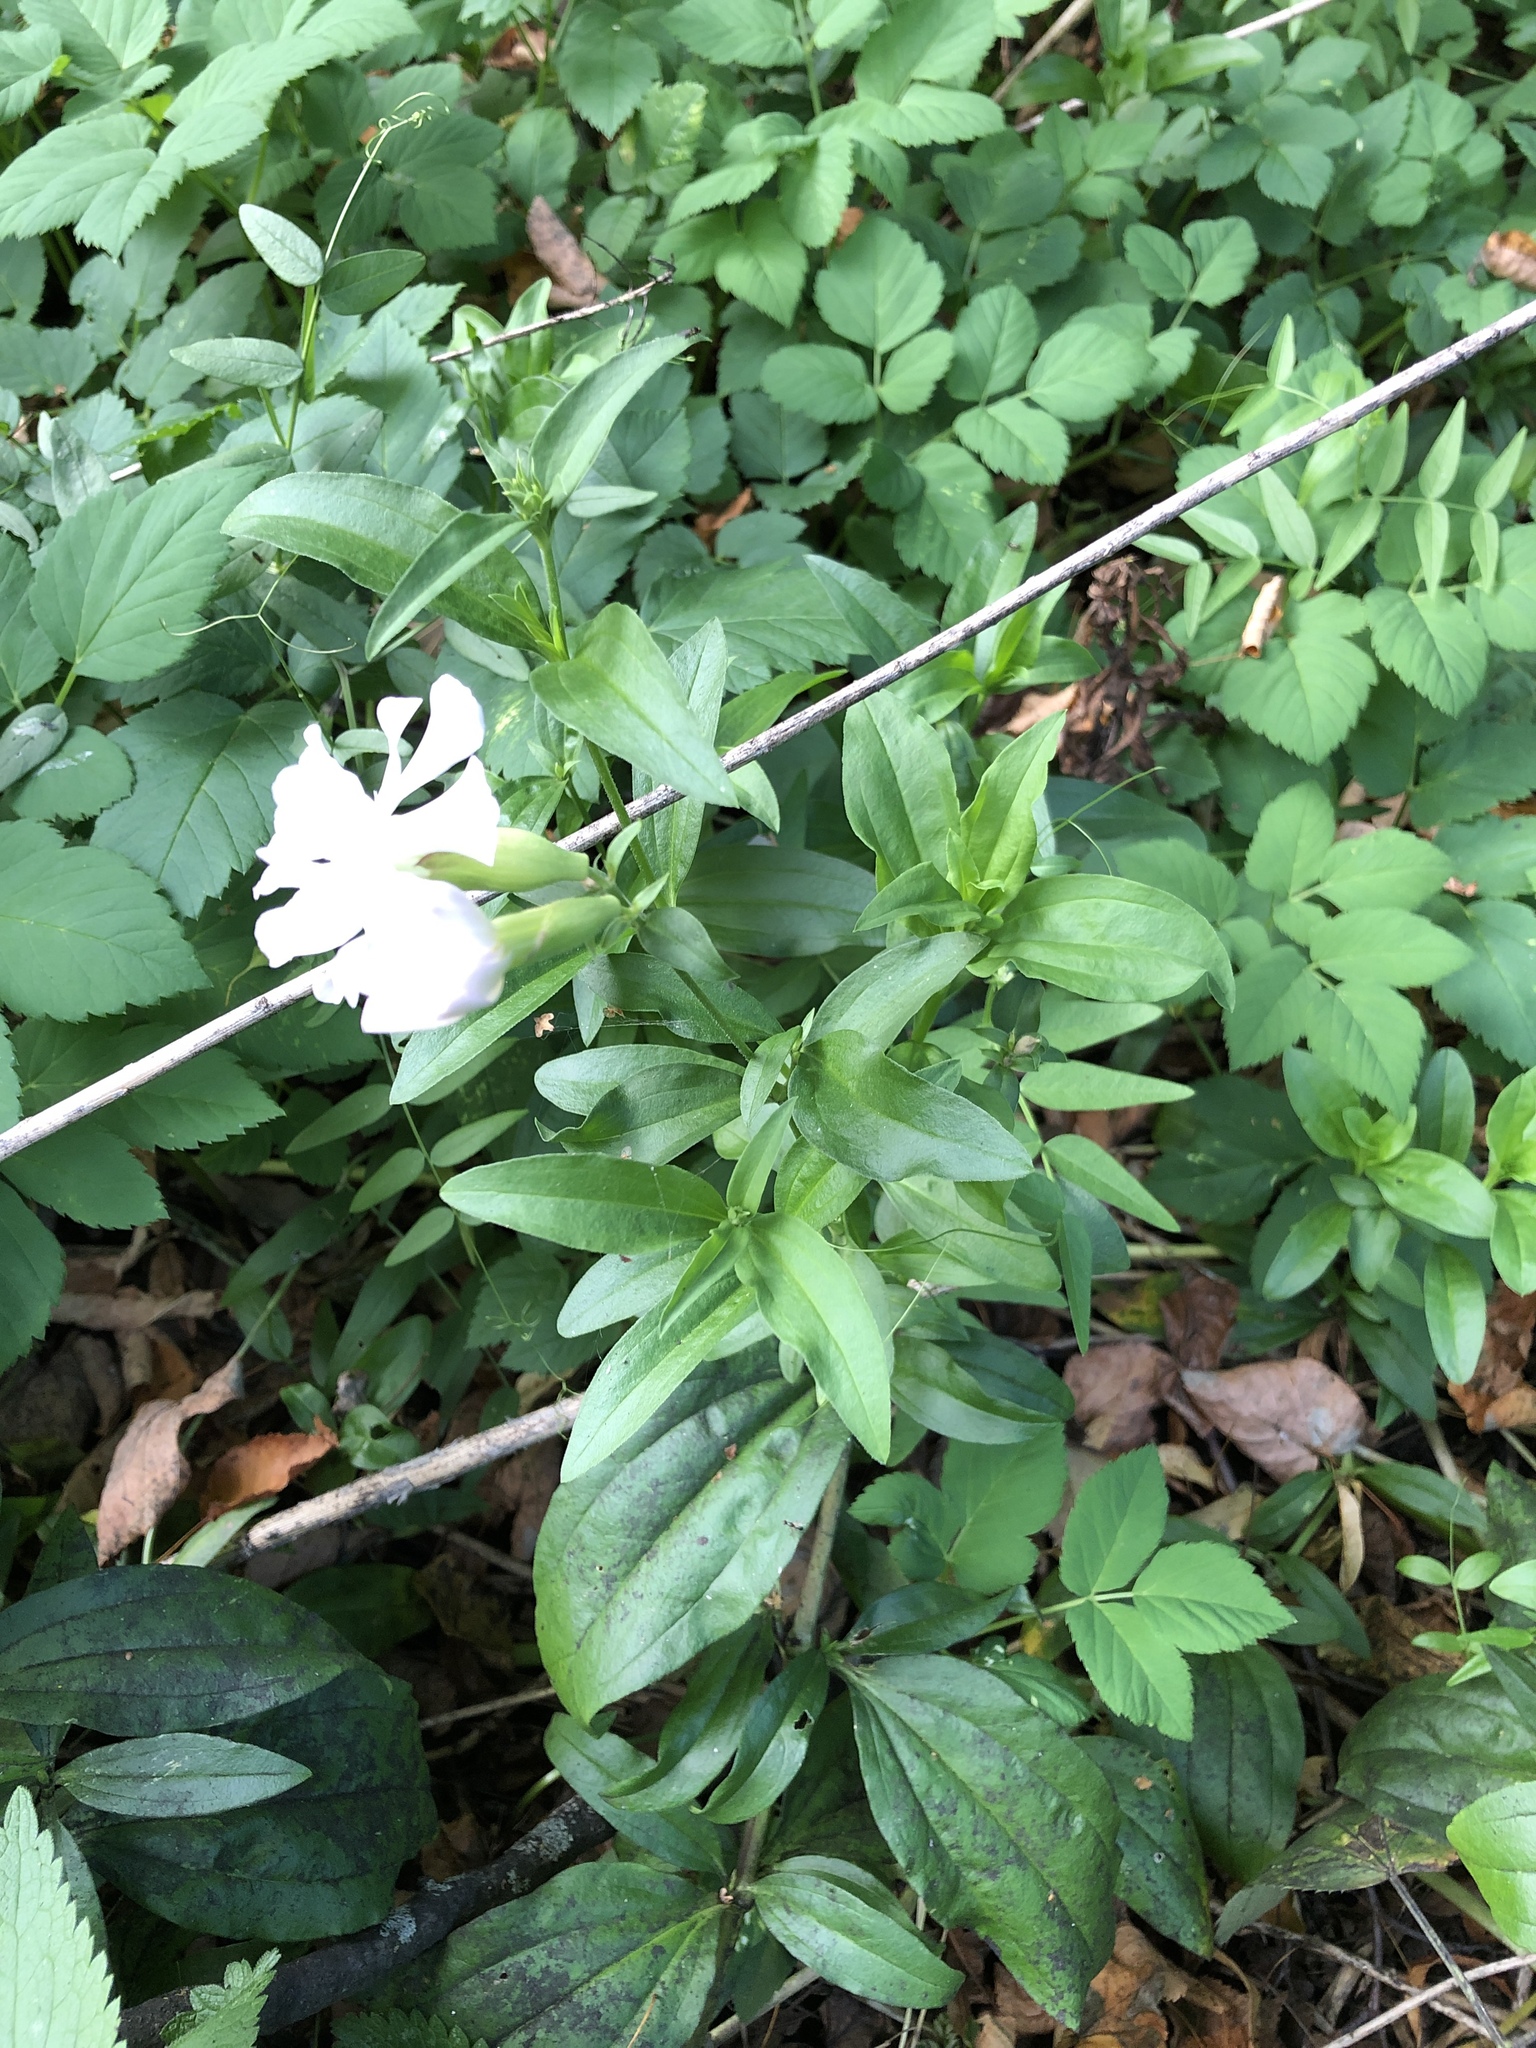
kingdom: Plantae
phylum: Tracheophyta
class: Magnoliopsida
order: Caryophyllales
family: Caryophyllaceae
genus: Saponaria
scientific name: Saponaria officinalis
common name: Soapwort
